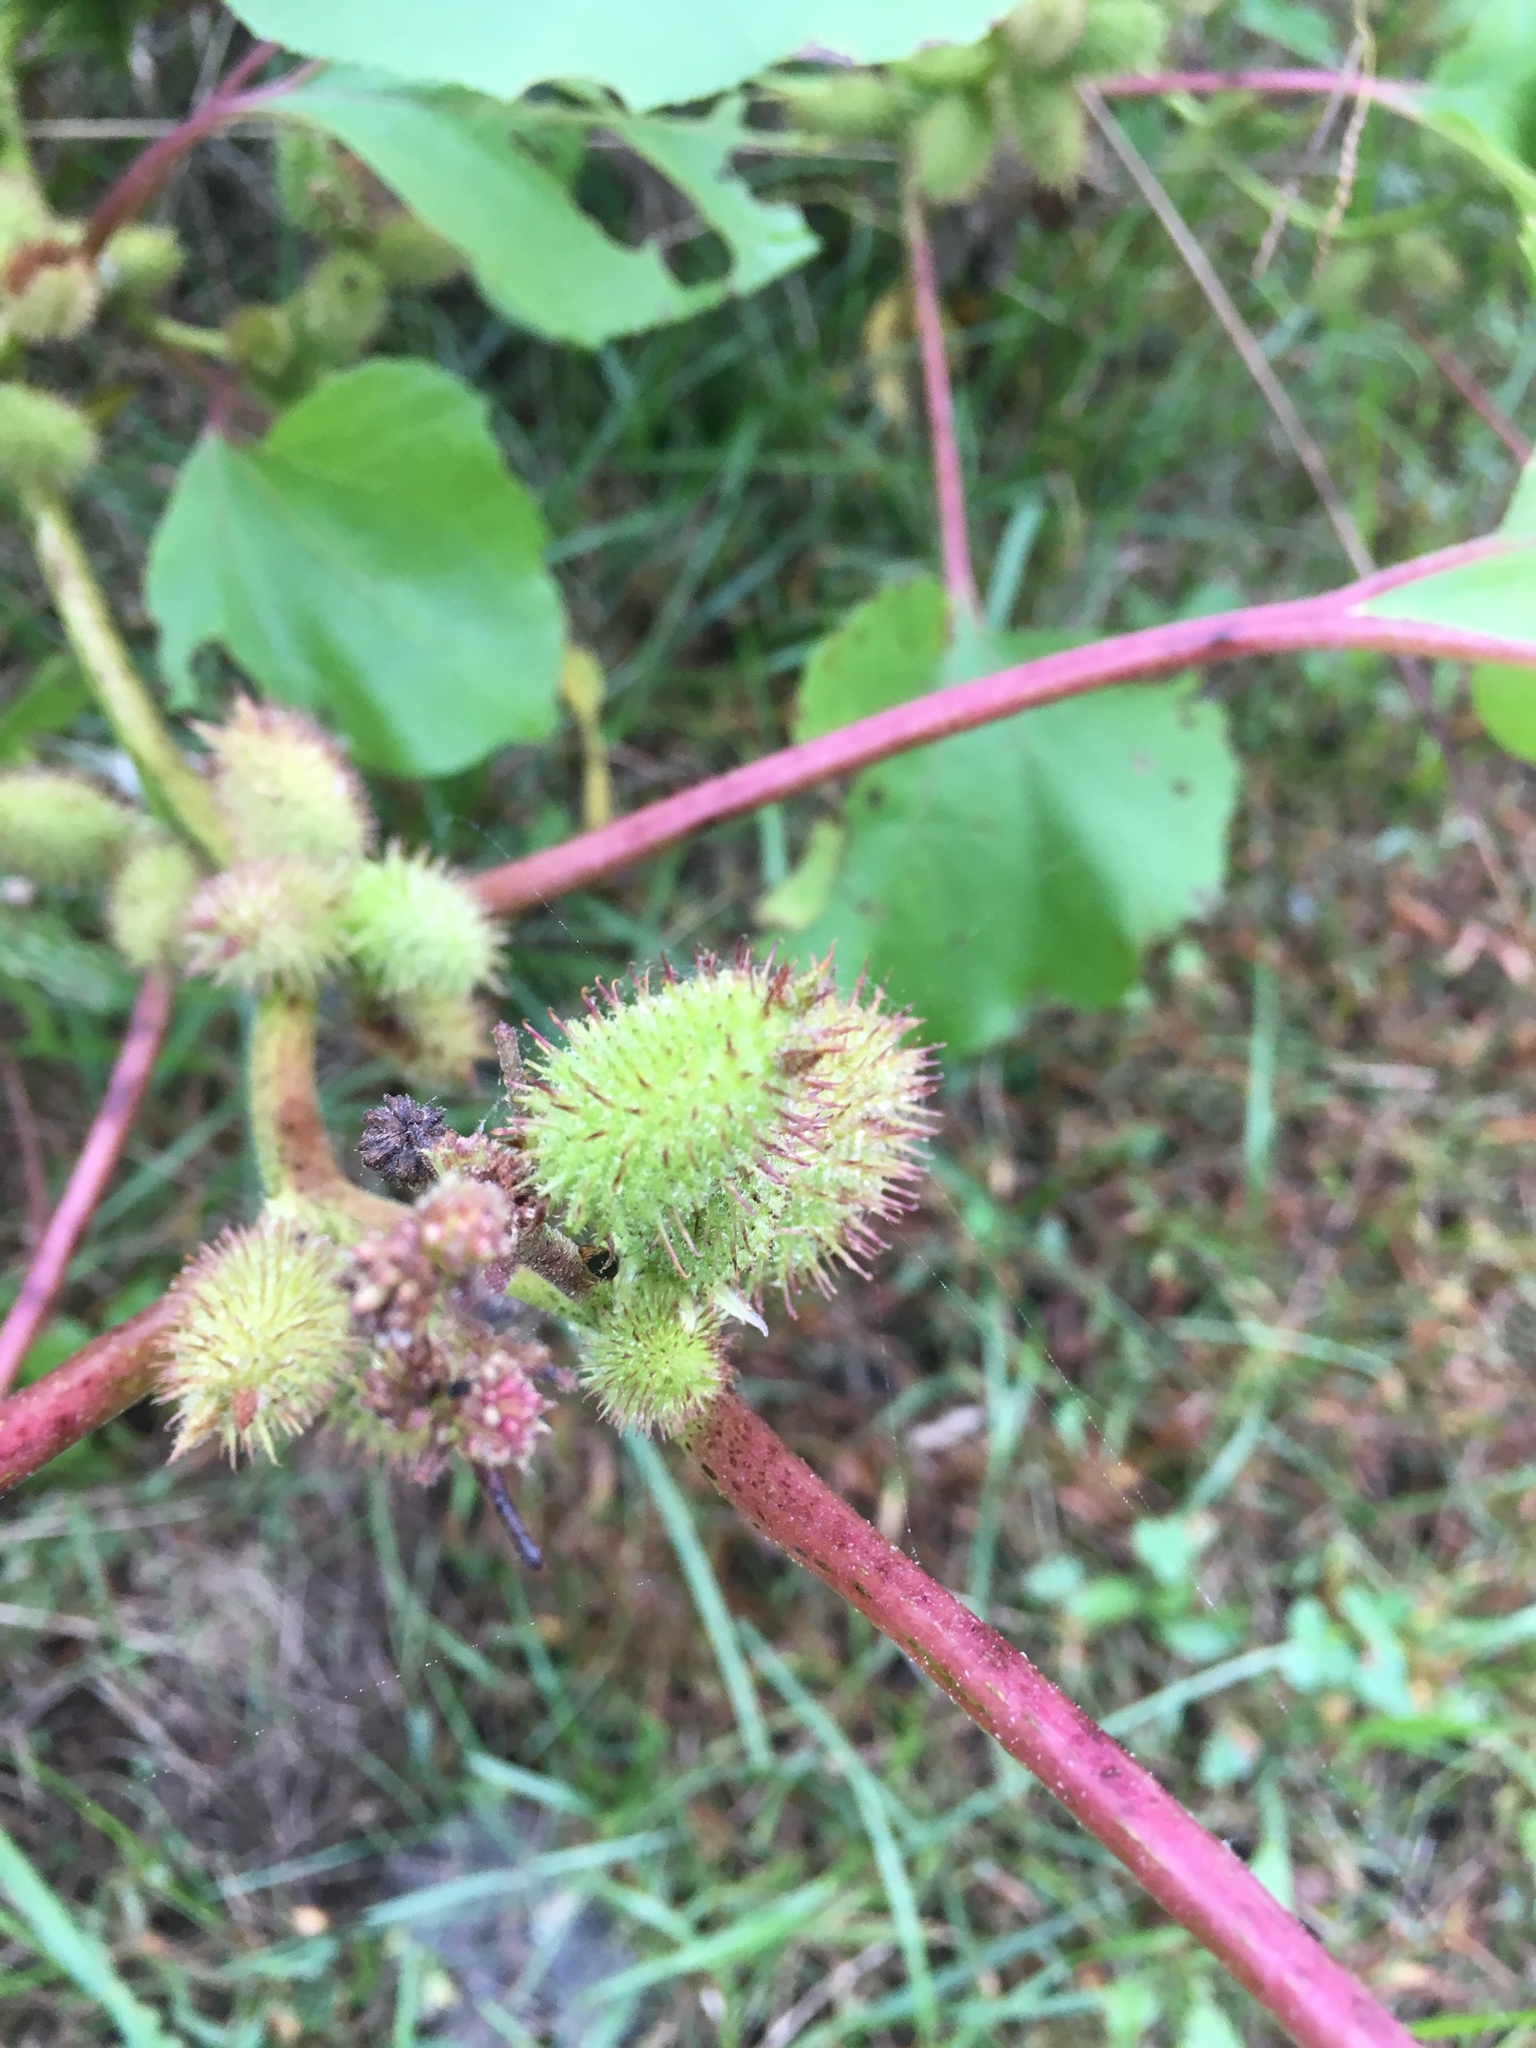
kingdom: Plantae
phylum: Tracheophyta
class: Magnoliopsida
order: Asterales
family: Asteraceae
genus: Xanthium
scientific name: Xanthium strumarium
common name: Rough cocklebur
